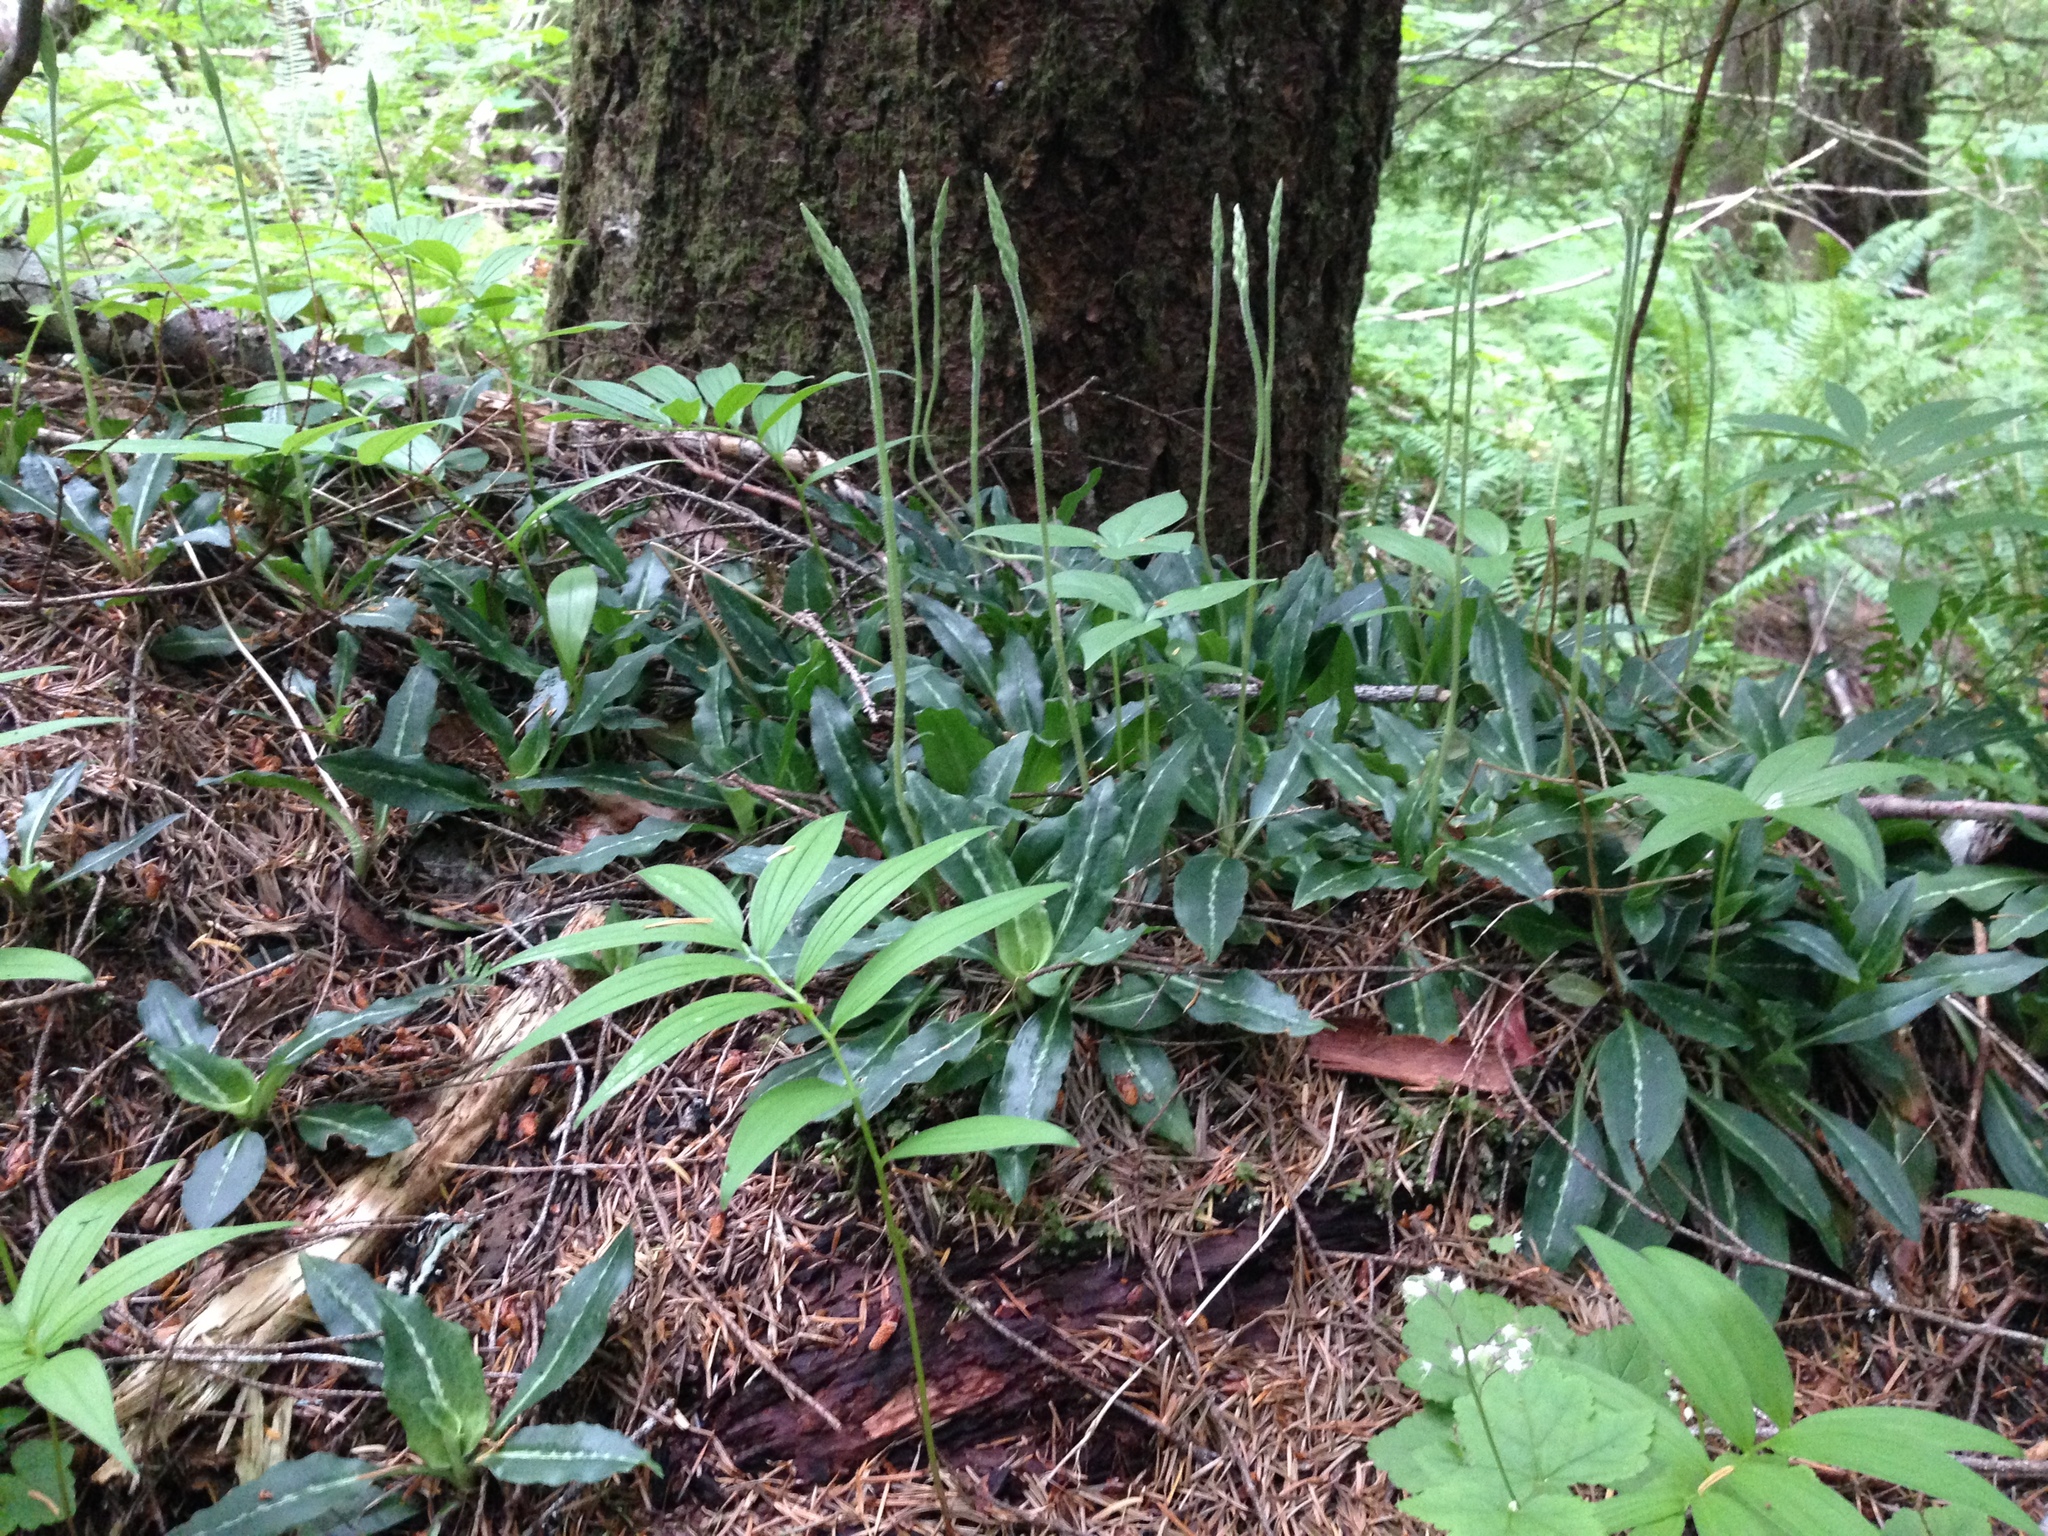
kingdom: Plantae
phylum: Tracheophyta
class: Liliopsida
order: Asparagales
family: Orchidaceae
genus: Goodyera
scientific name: Goodyera oblongifolia
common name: Giant rattlesnake-plantain
